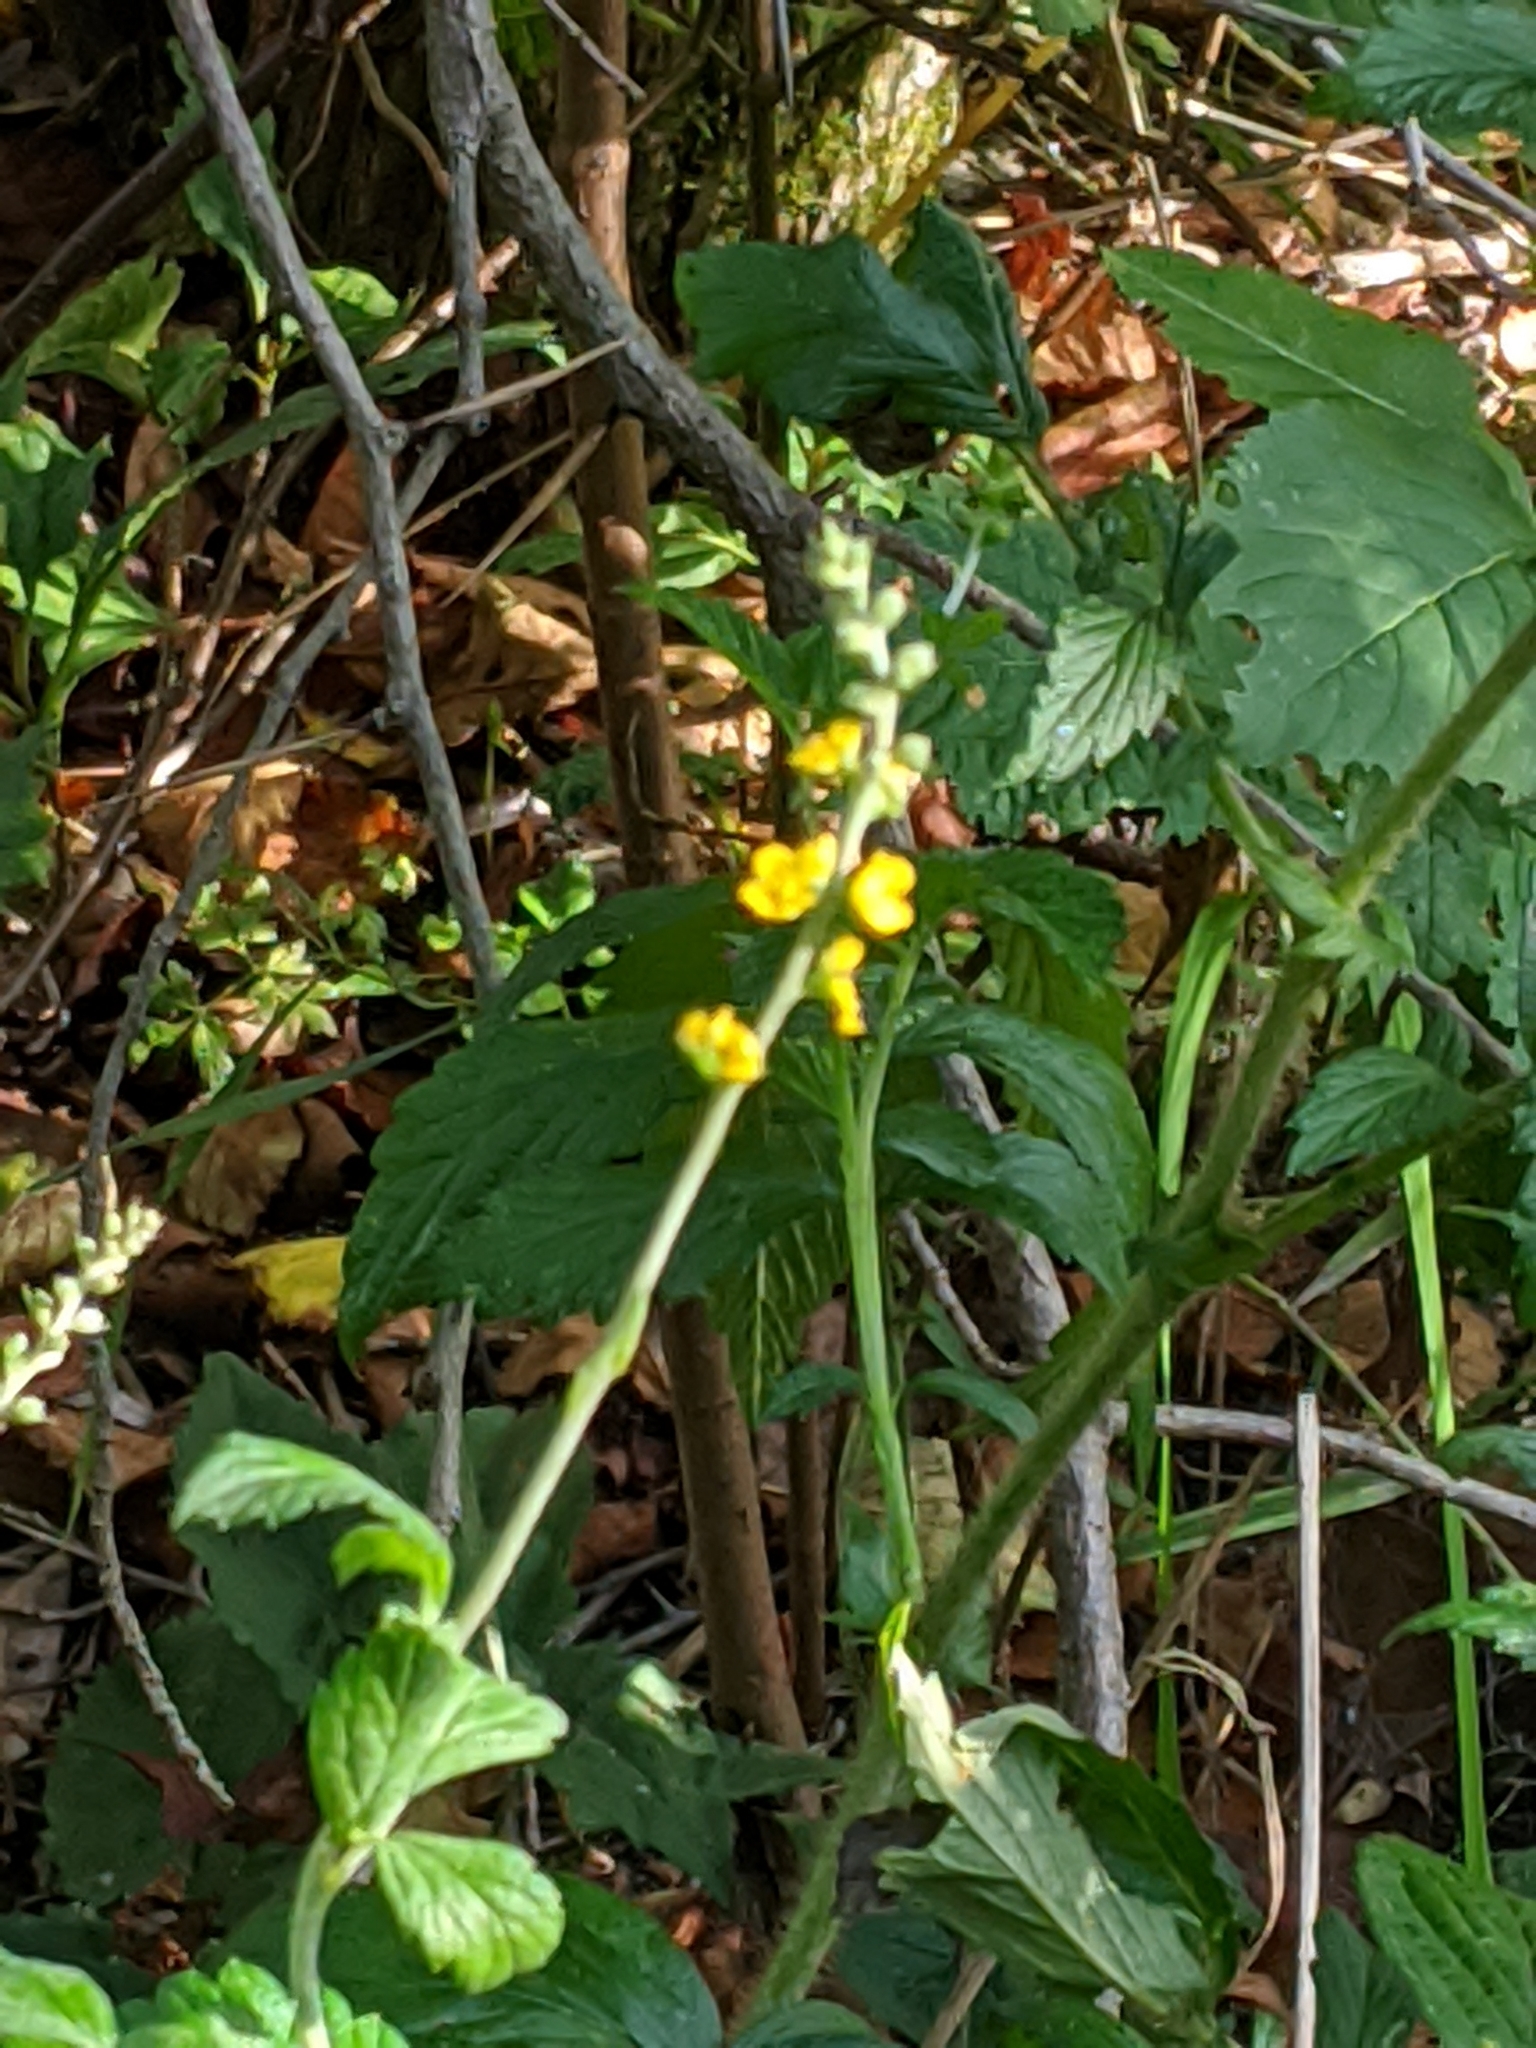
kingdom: Plantae
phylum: Tracheophyta
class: Magnoliopsida
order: Rosales
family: Rosaceae
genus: Agrimonia
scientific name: Agrimonia striata
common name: Britton's agrimony
